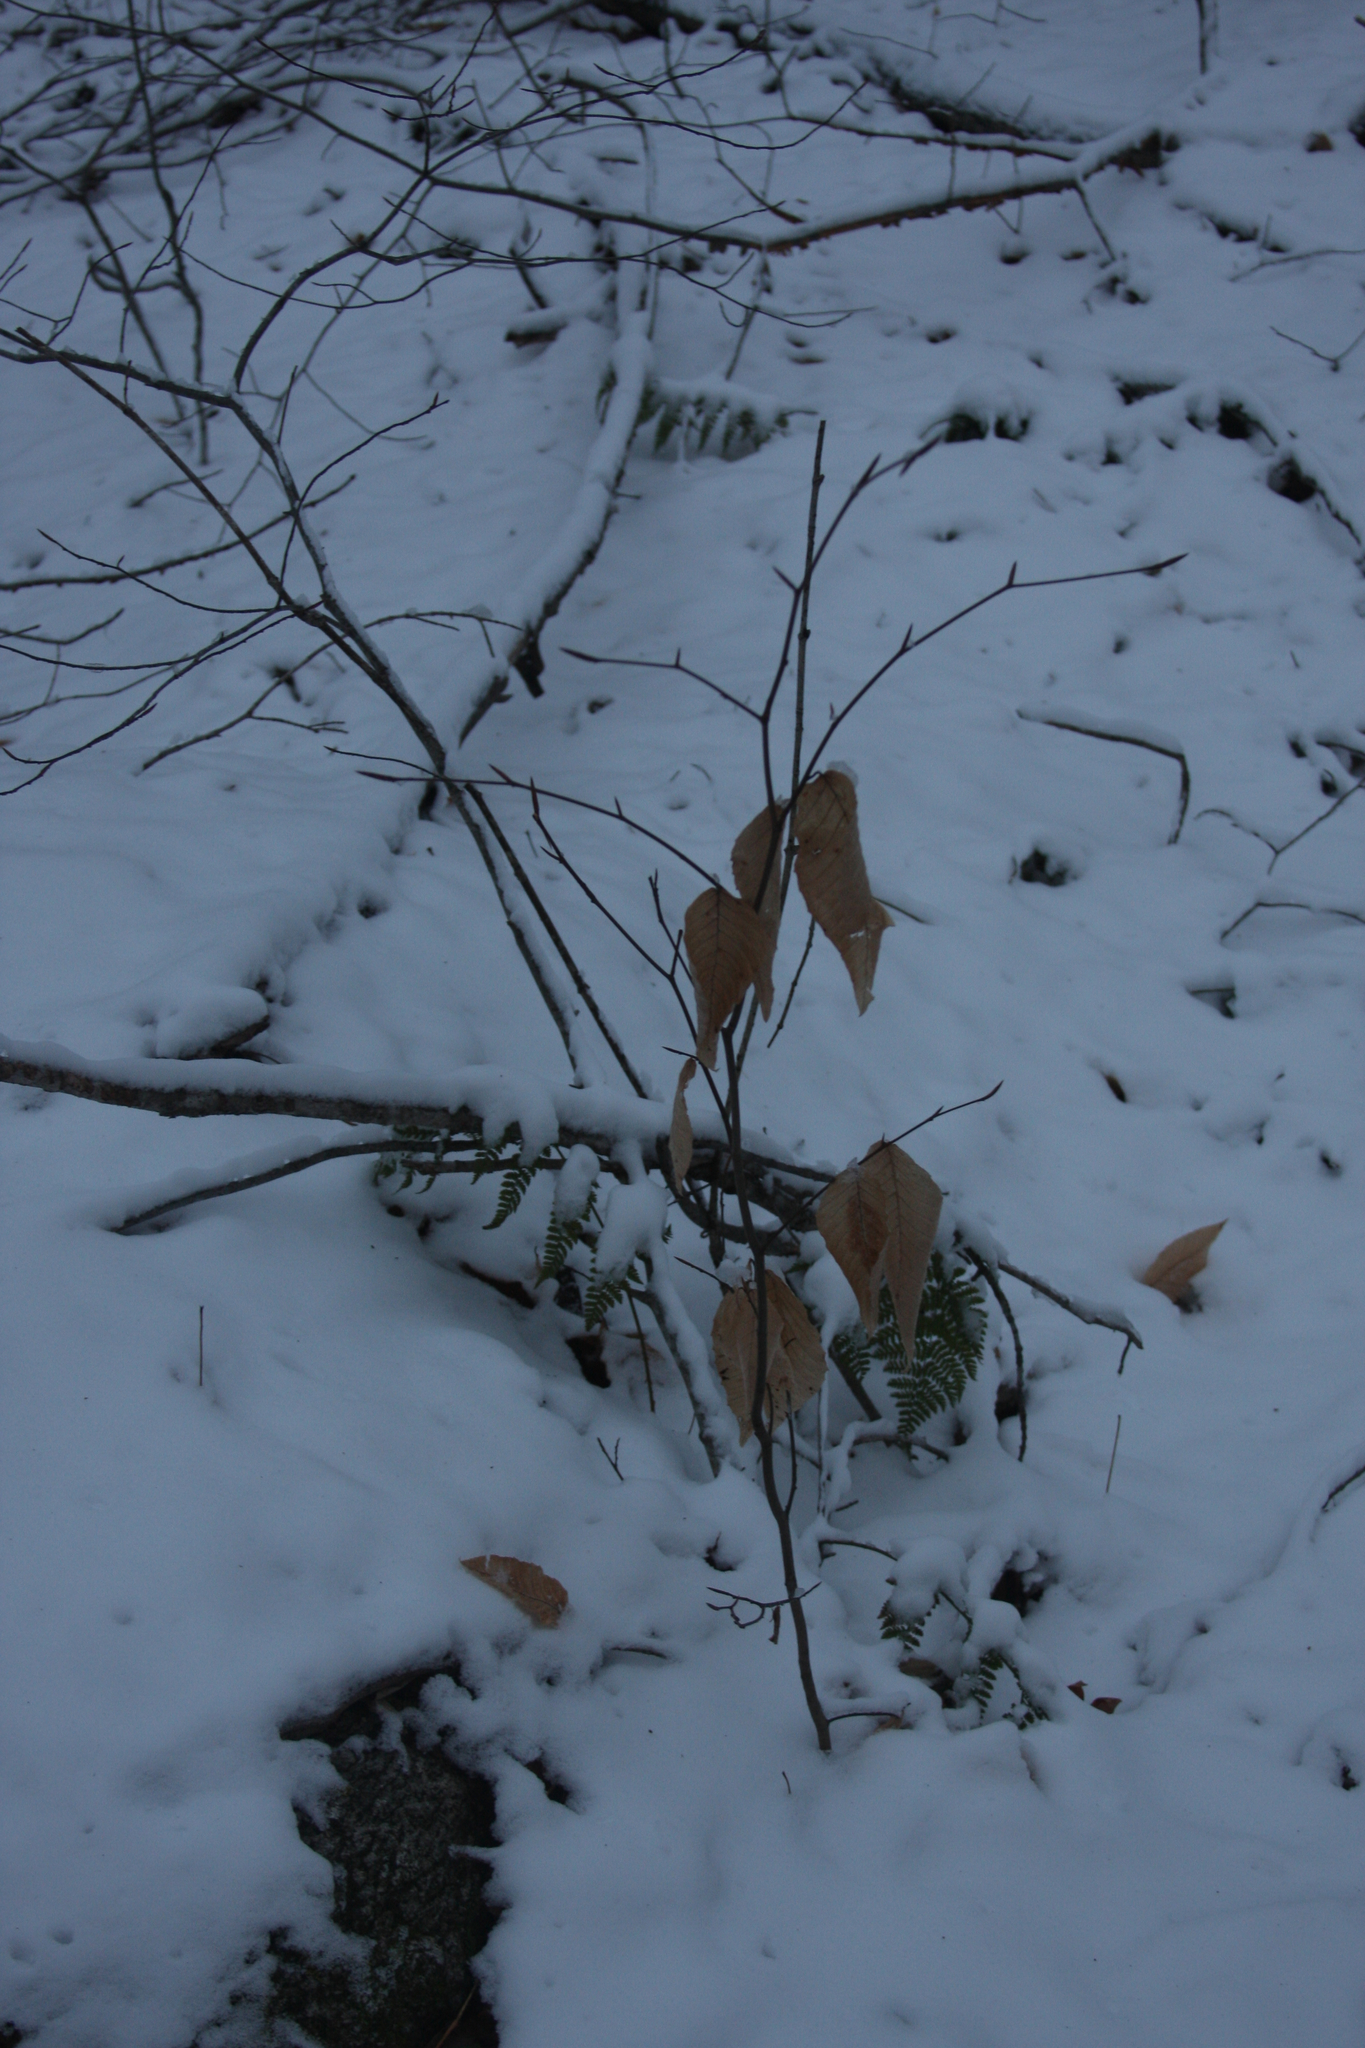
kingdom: Plantae
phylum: Tracheophyta
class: Magnoliopsida
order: Fagales
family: Fagaceae
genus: Fagus
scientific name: Fagus grandifolia
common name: American beech
